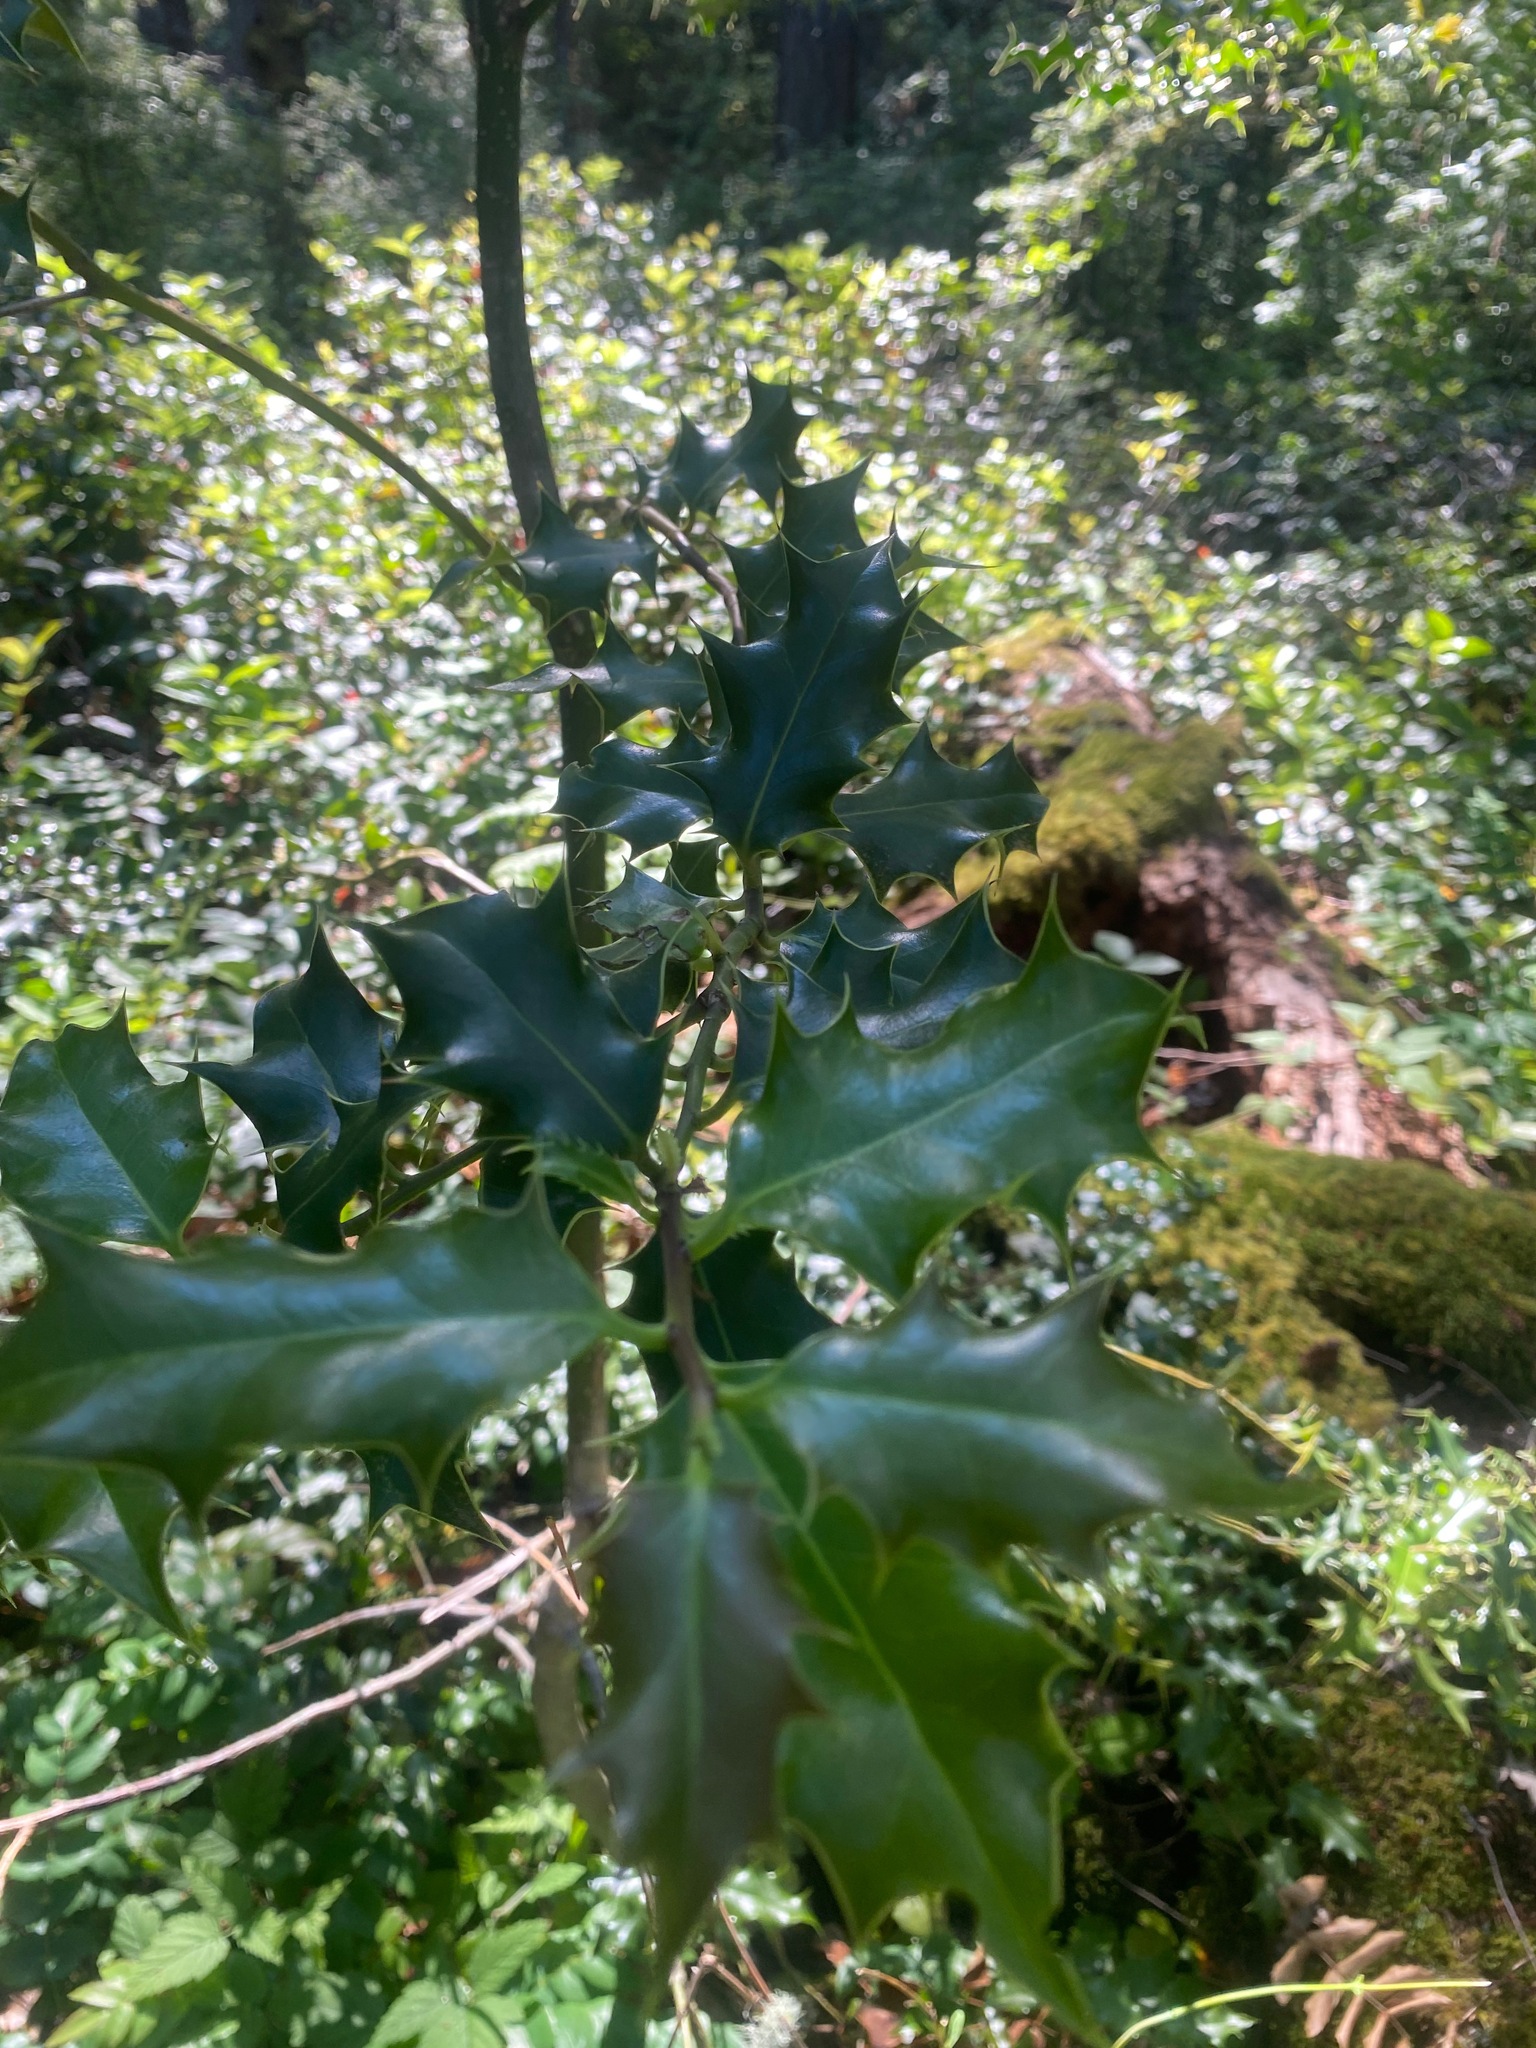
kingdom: Plantae
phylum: Tracheophyta
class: Magnoliopsida
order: Aquifoliales
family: Aquifoliaceae
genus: Ilex
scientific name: Ilex aquifolium
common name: English holly
